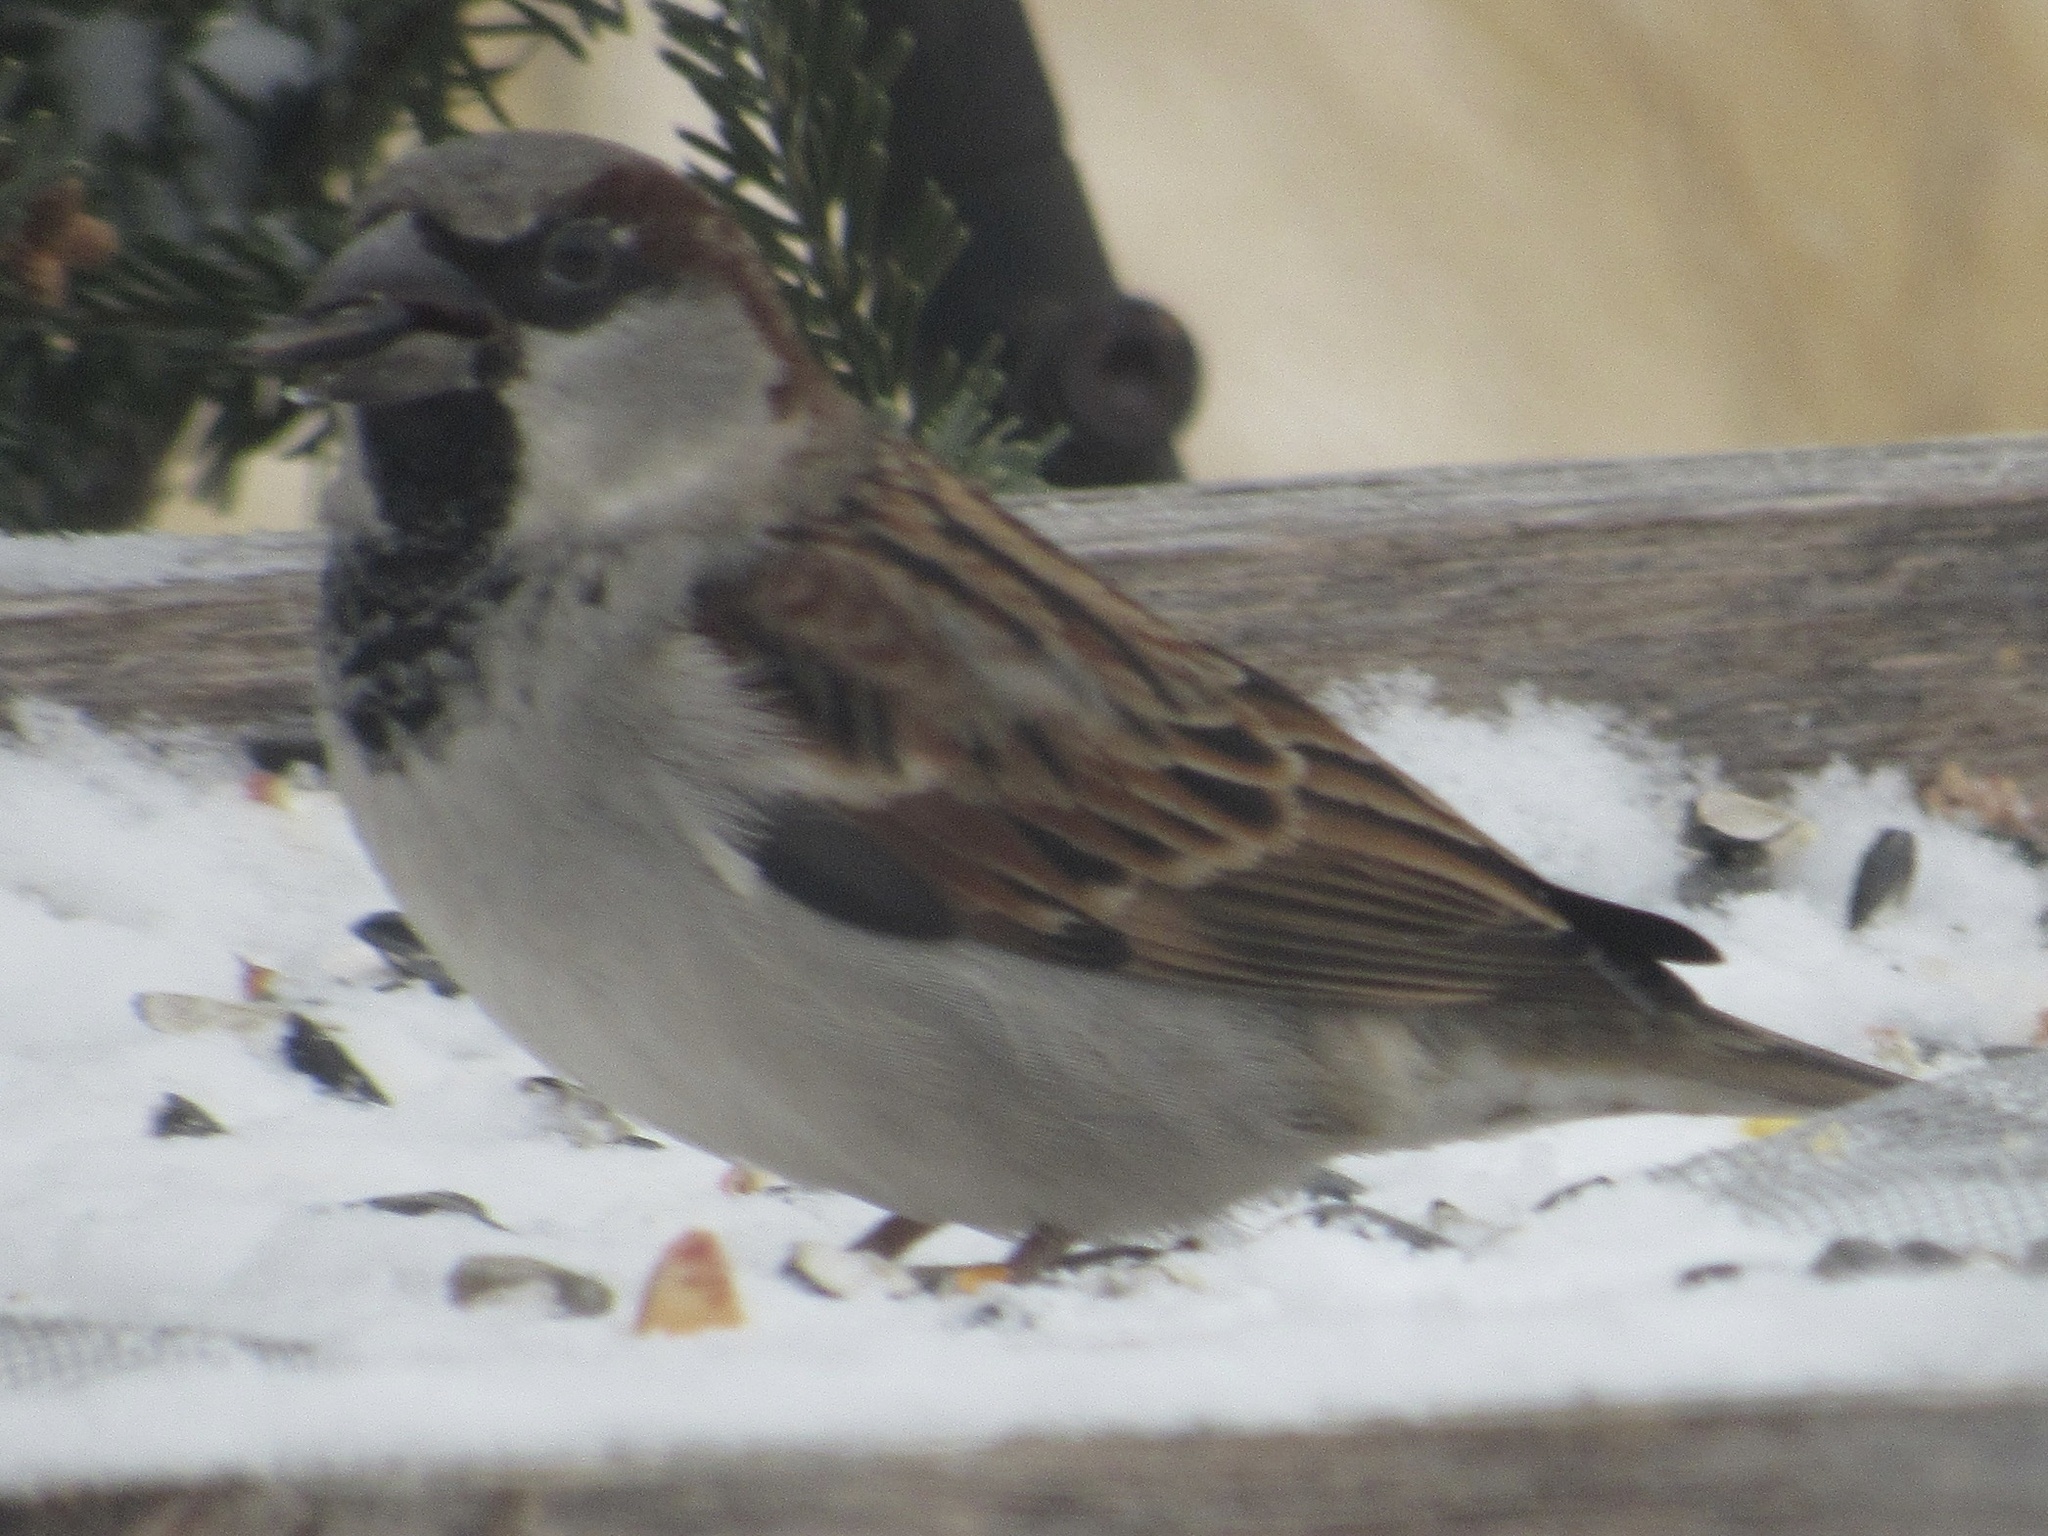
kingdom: Animalia
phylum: Chordata
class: Aves
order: Passeriformes
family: Passeridae
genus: Passer
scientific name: Passer domesticus
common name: House sparrow
